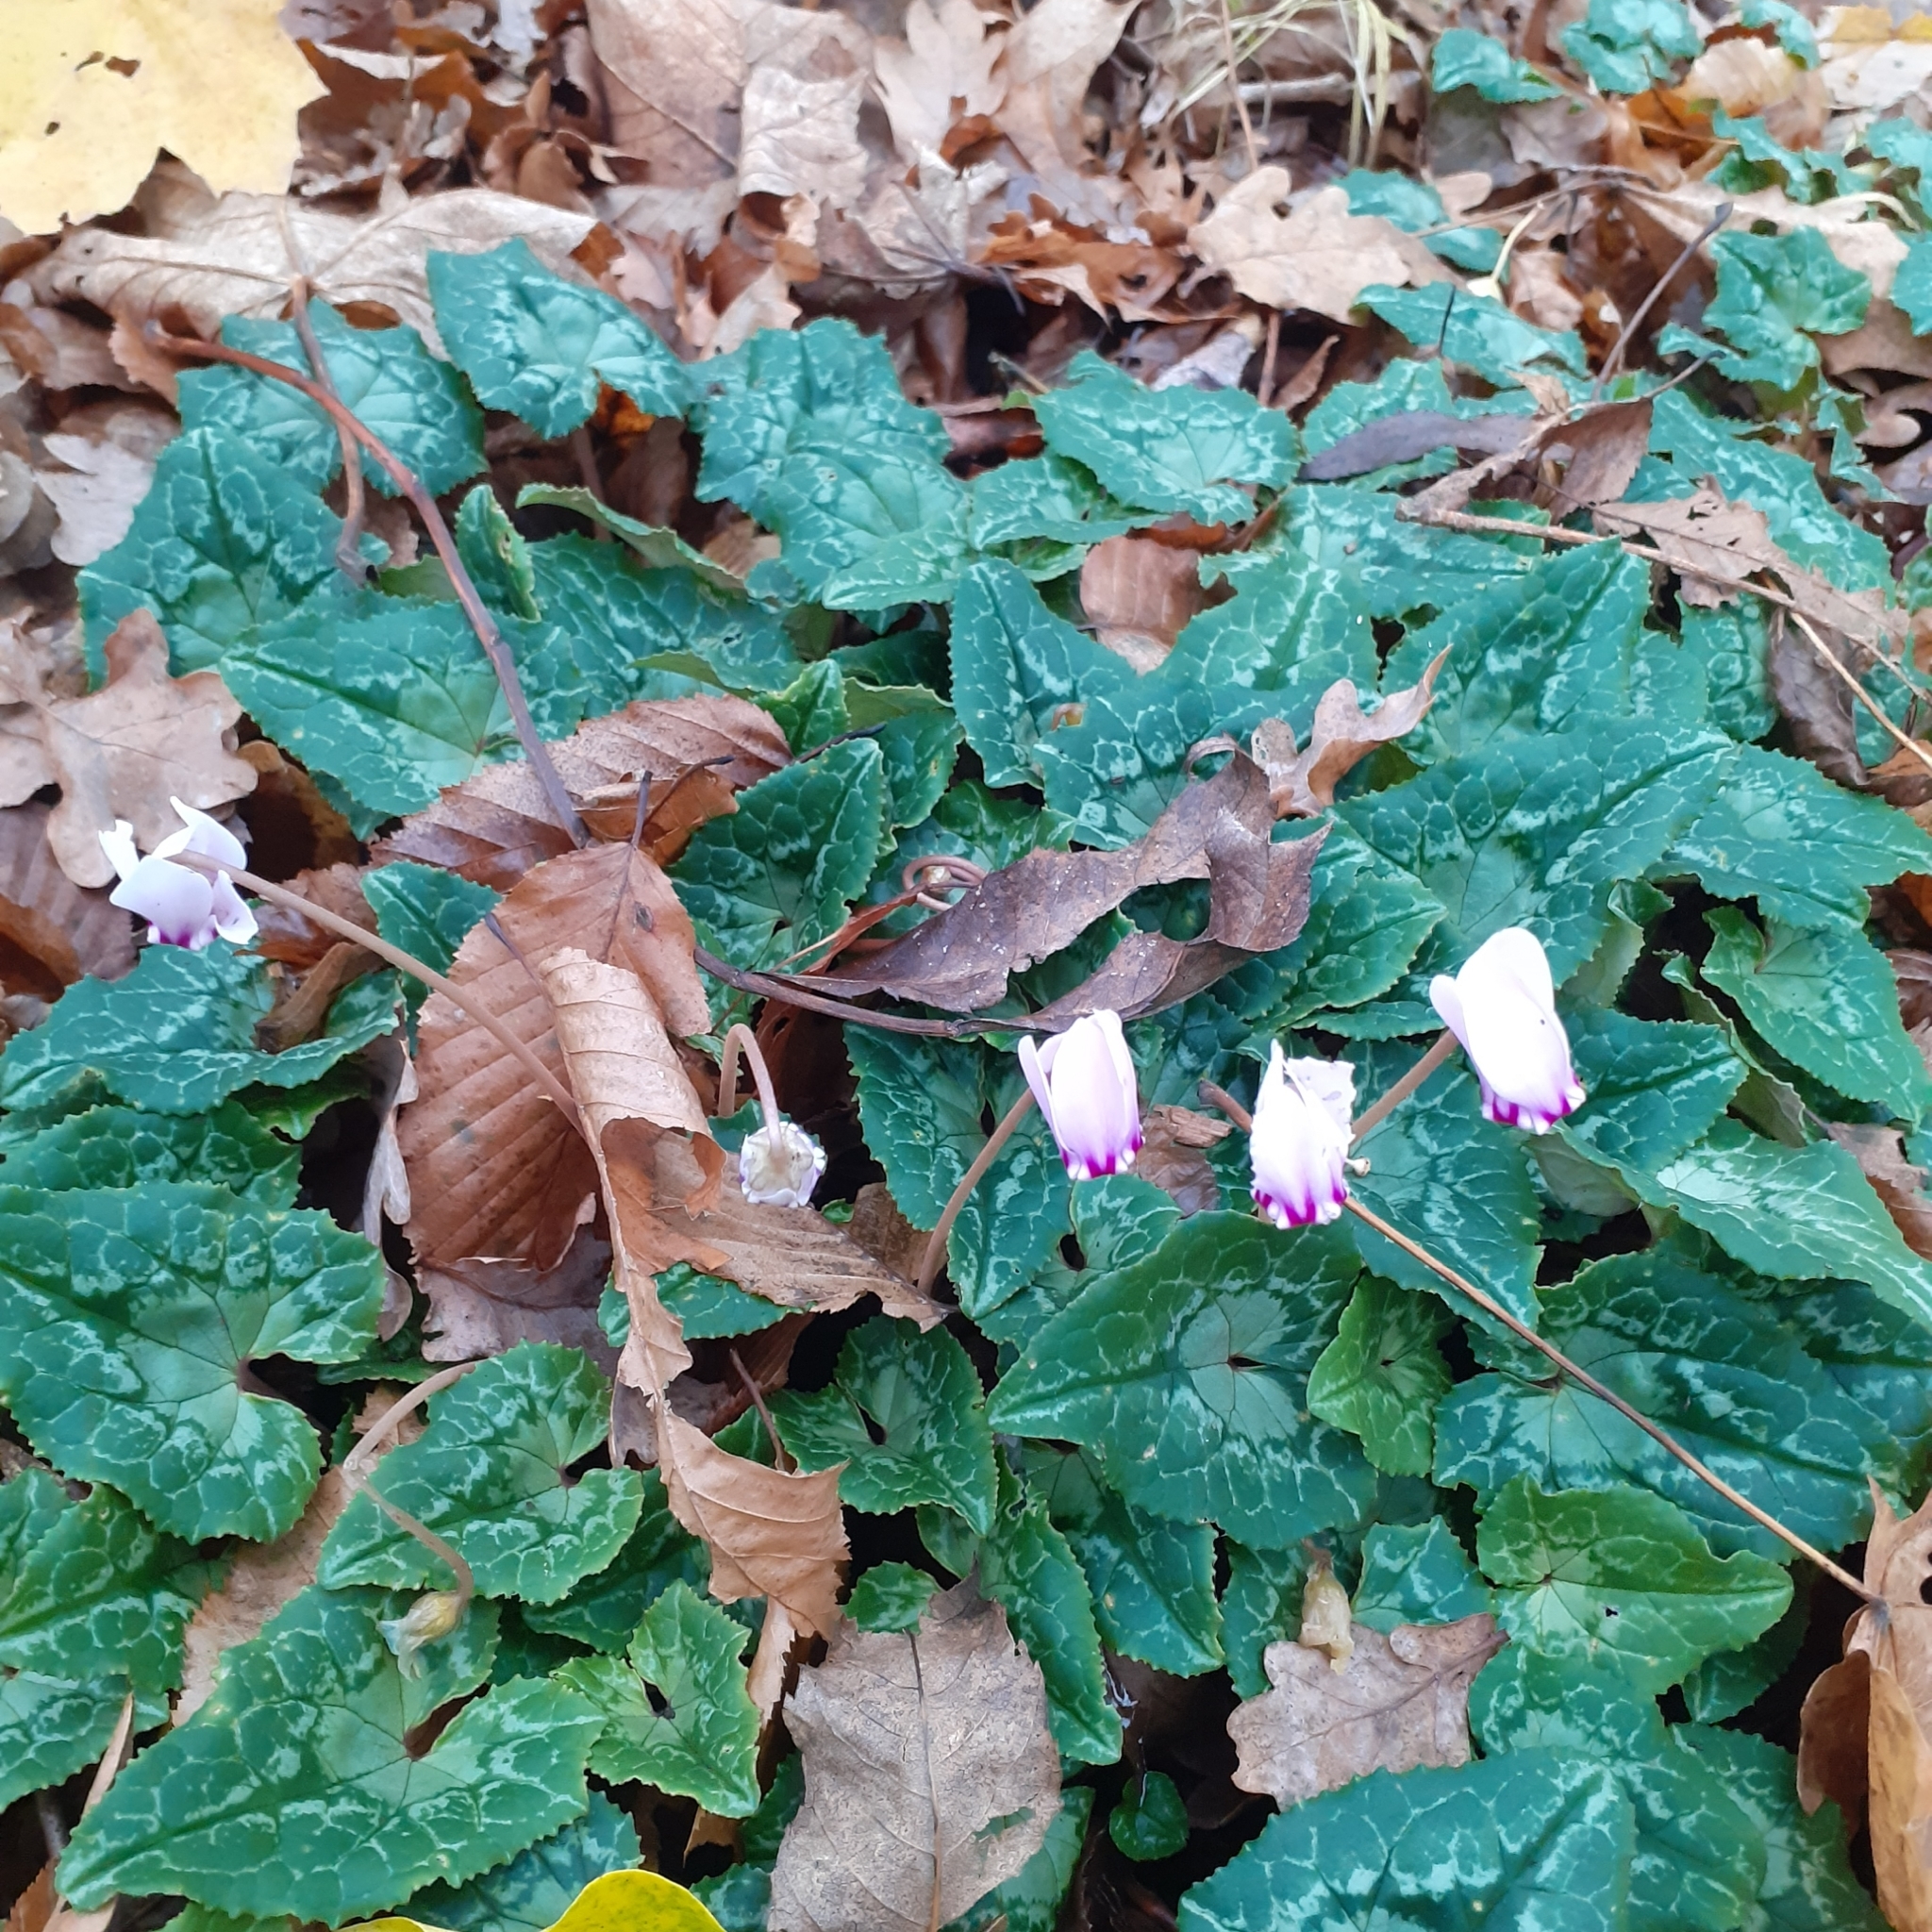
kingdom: Plantae
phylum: Tracheophyta
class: Magnoliopsida
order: Ericales
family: Primulaceae
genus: Cyclamen
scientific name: Cyclamen hederifolium
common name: Sowbread
